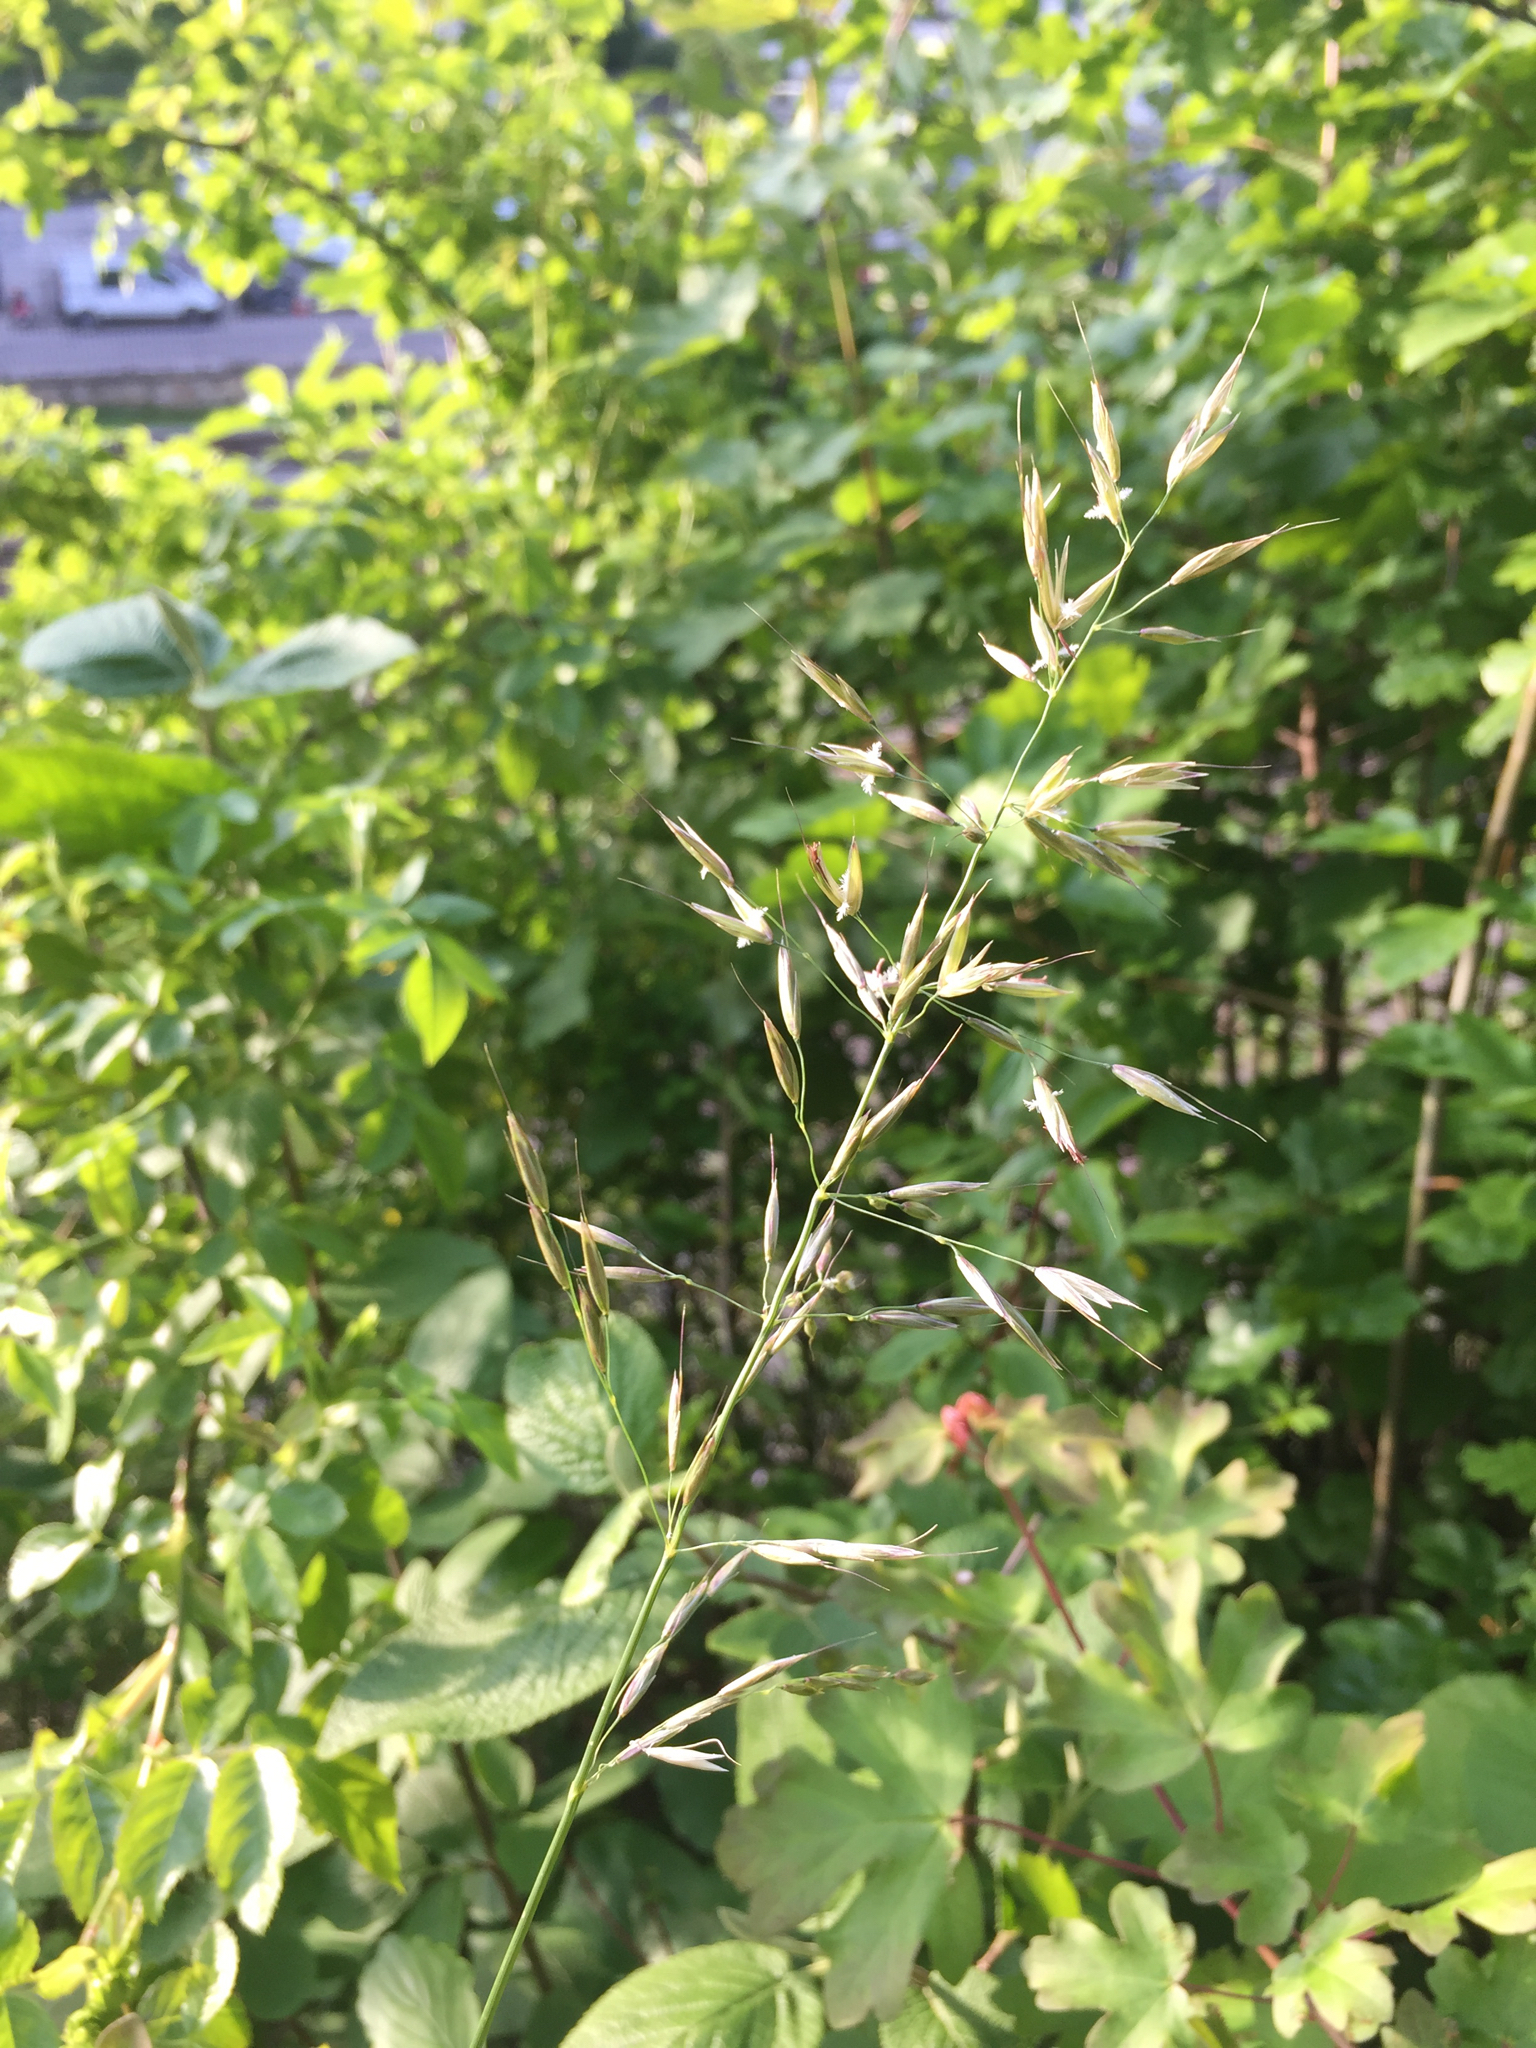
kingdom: Plantae
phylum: Tracheophyta
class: Liliopsida
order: Poales
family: Poaceae
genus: Arrhenatherum
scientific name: Arrhenatherum elatius
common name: Tall oatgrass
